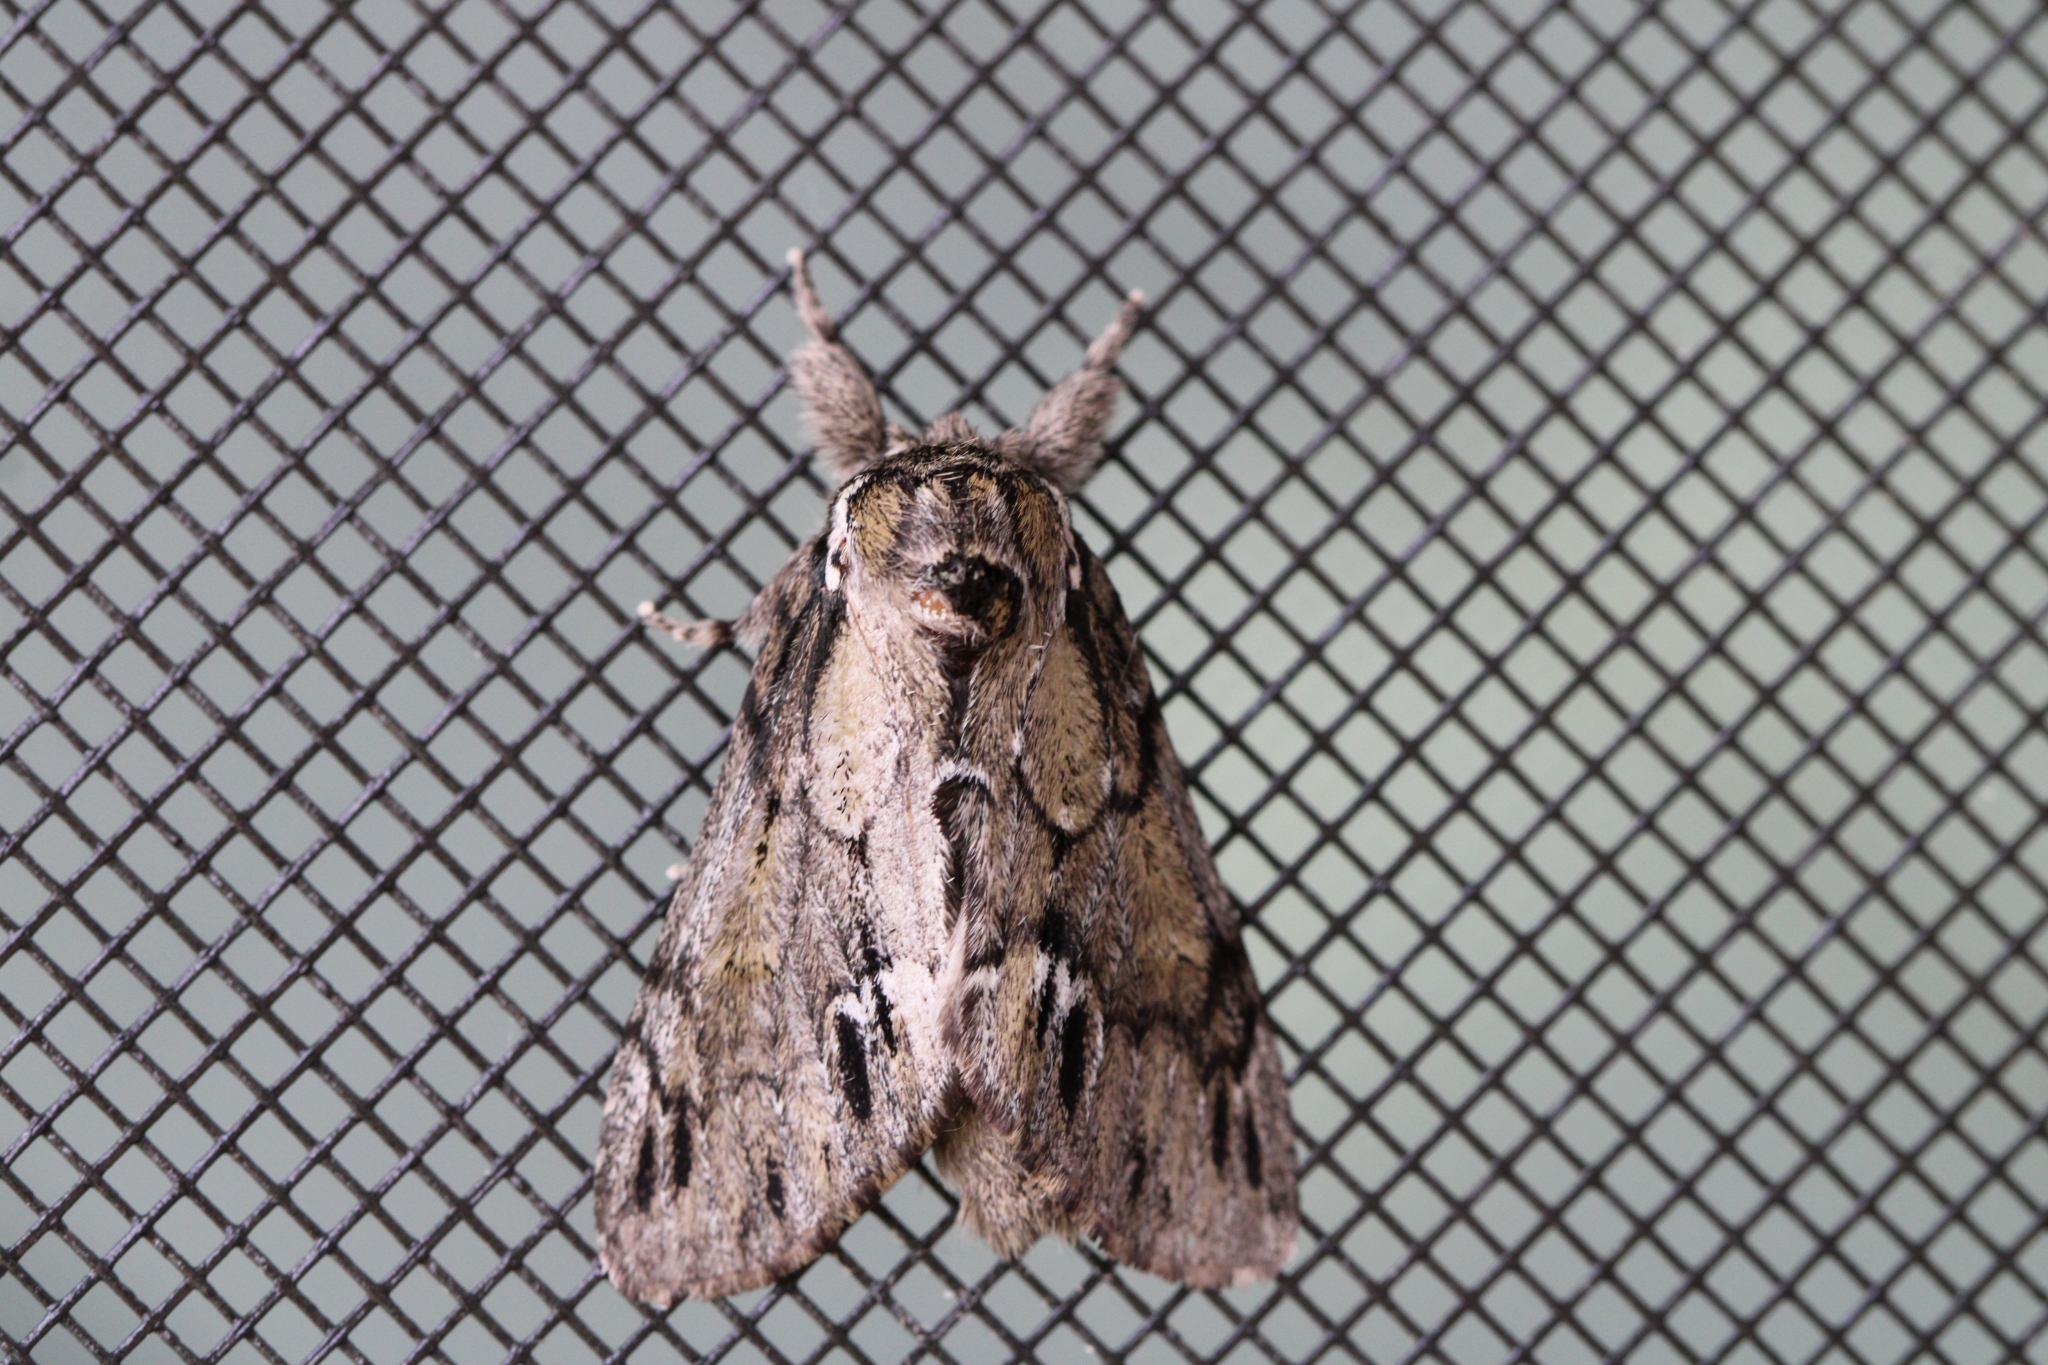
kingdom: Animalia
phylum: Arthropoda
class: Insecta
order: Lepidoptera
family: Notodontidae
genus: Paraeschra
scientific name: Paraeschra georgica
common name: Georgian prominent
